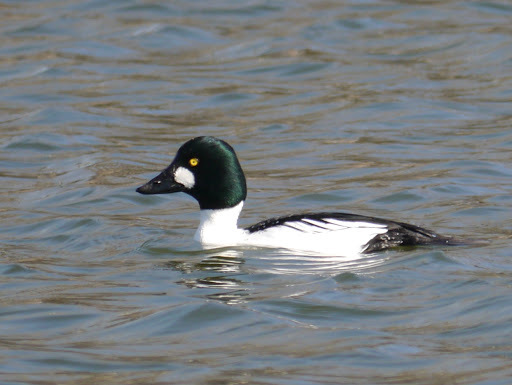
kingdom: Animalia
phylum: Chordata
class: Aves
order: Anseriformes
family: Anatidae
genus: Bucephala
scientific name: Bucephala clangula
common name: Common goldeneye
